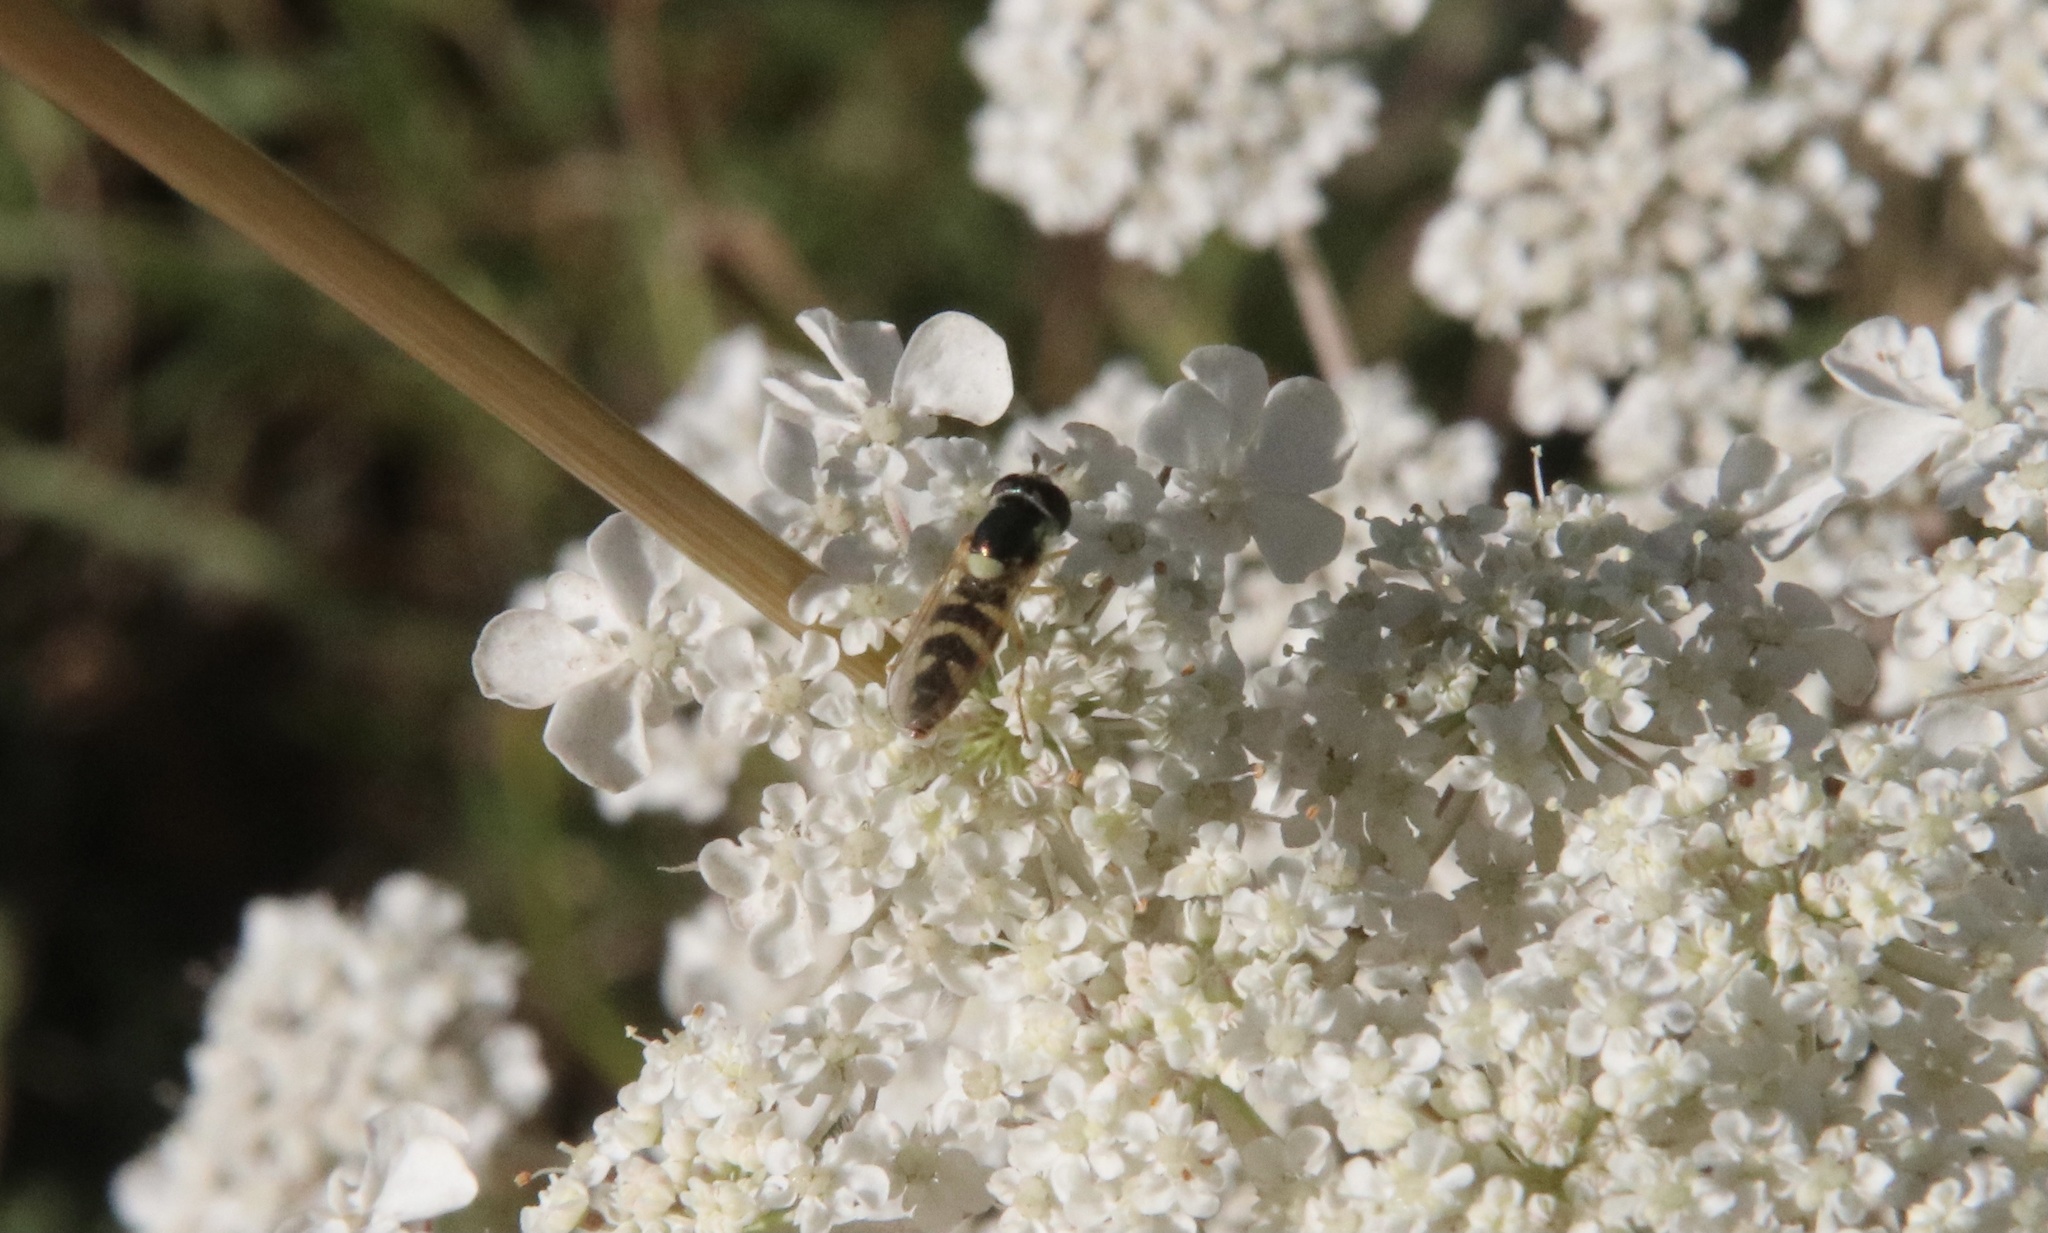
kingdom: Animalia
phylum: Arthropoda
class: Insecta
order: Diptera
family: Syrphidae
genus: Allograpta
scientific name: Allograpta pulchra
